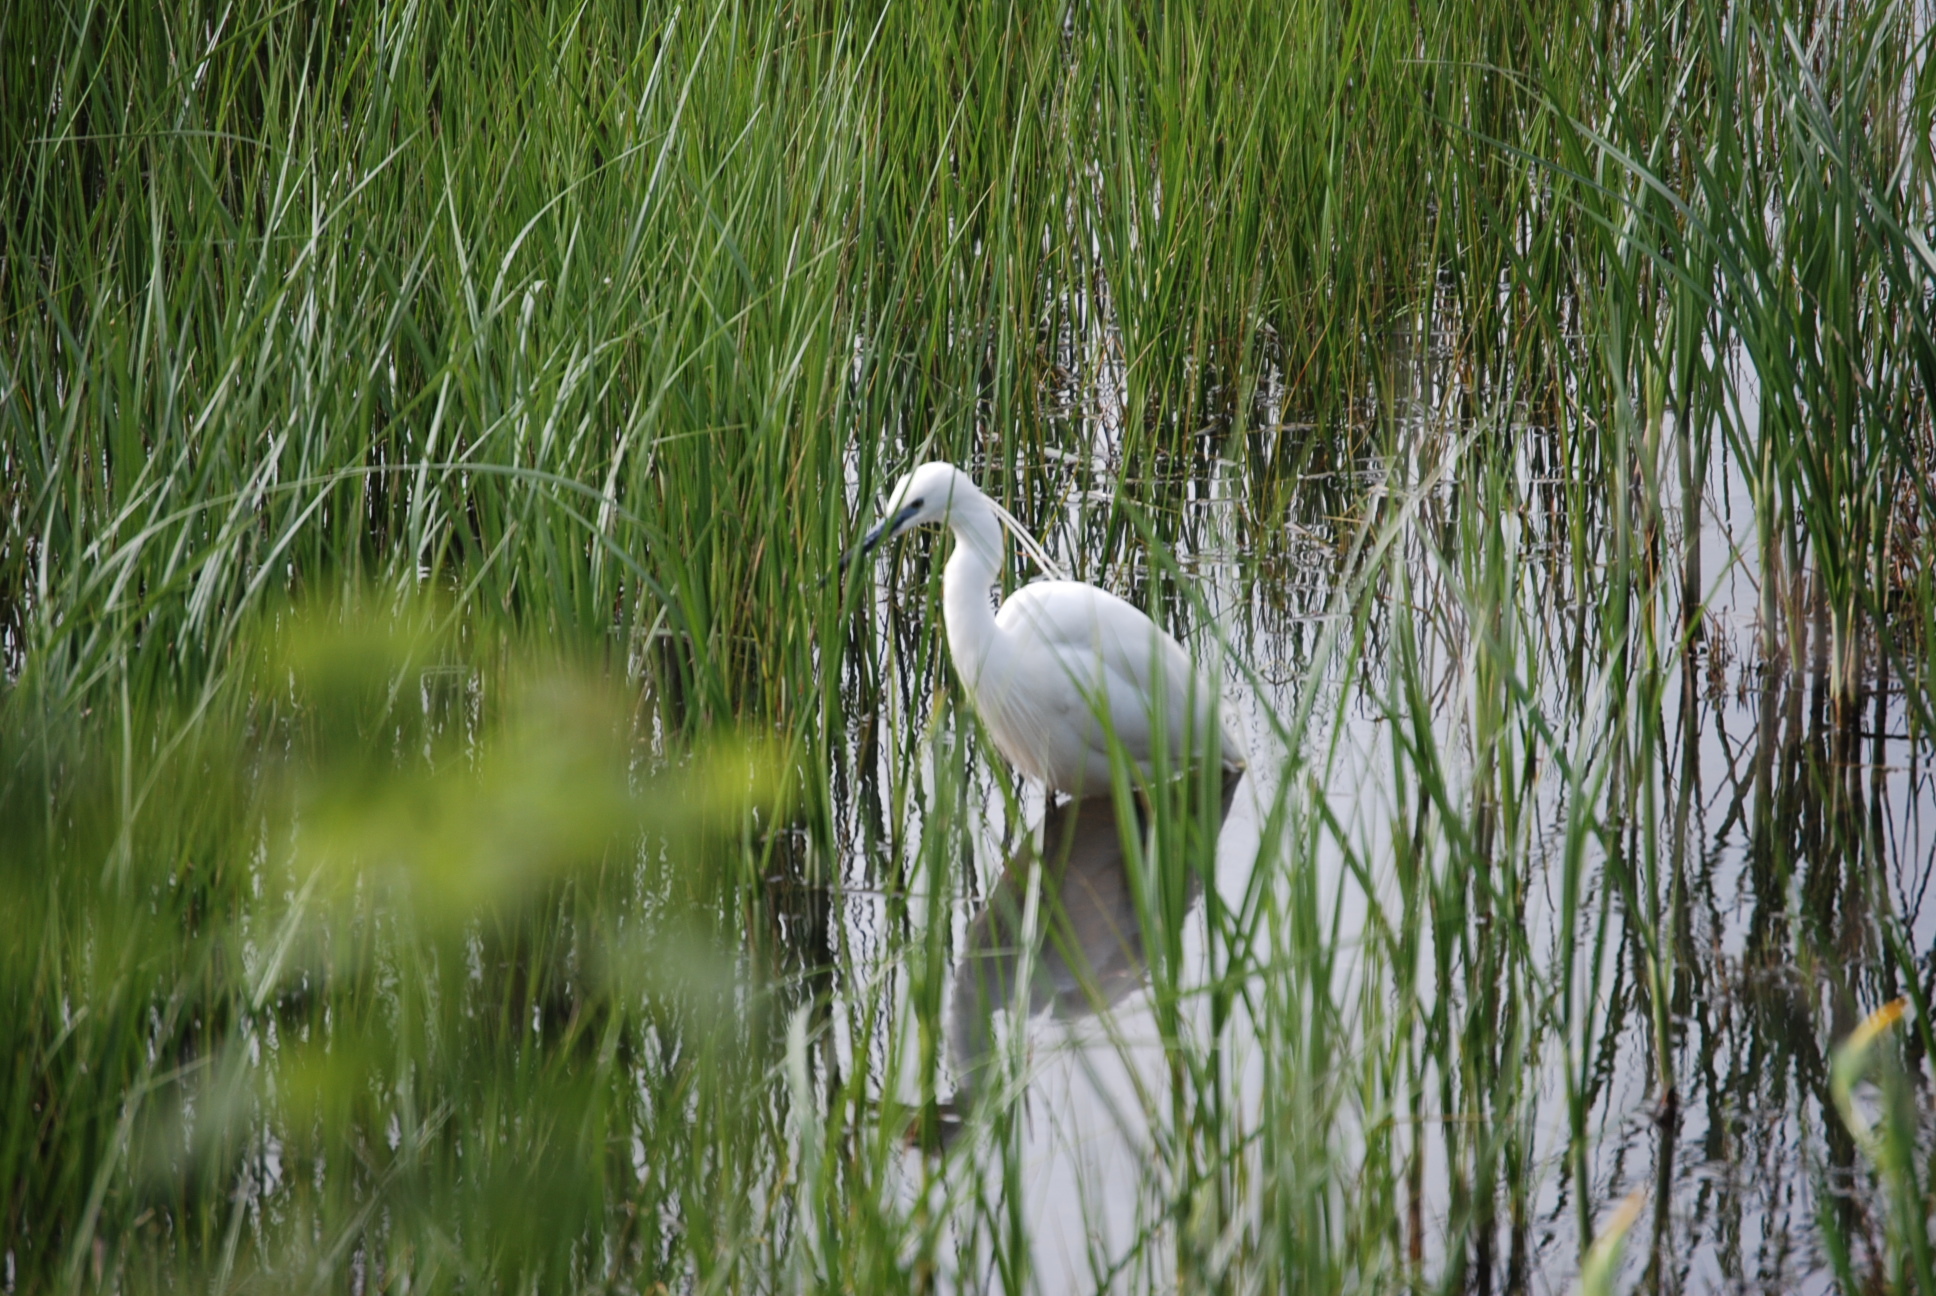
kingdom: Animalia
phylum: Chordata
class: Aves
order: Pelecaniformes
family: Ardeidae
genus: Egretta
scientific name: Egretta garzetta
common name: Little egret
